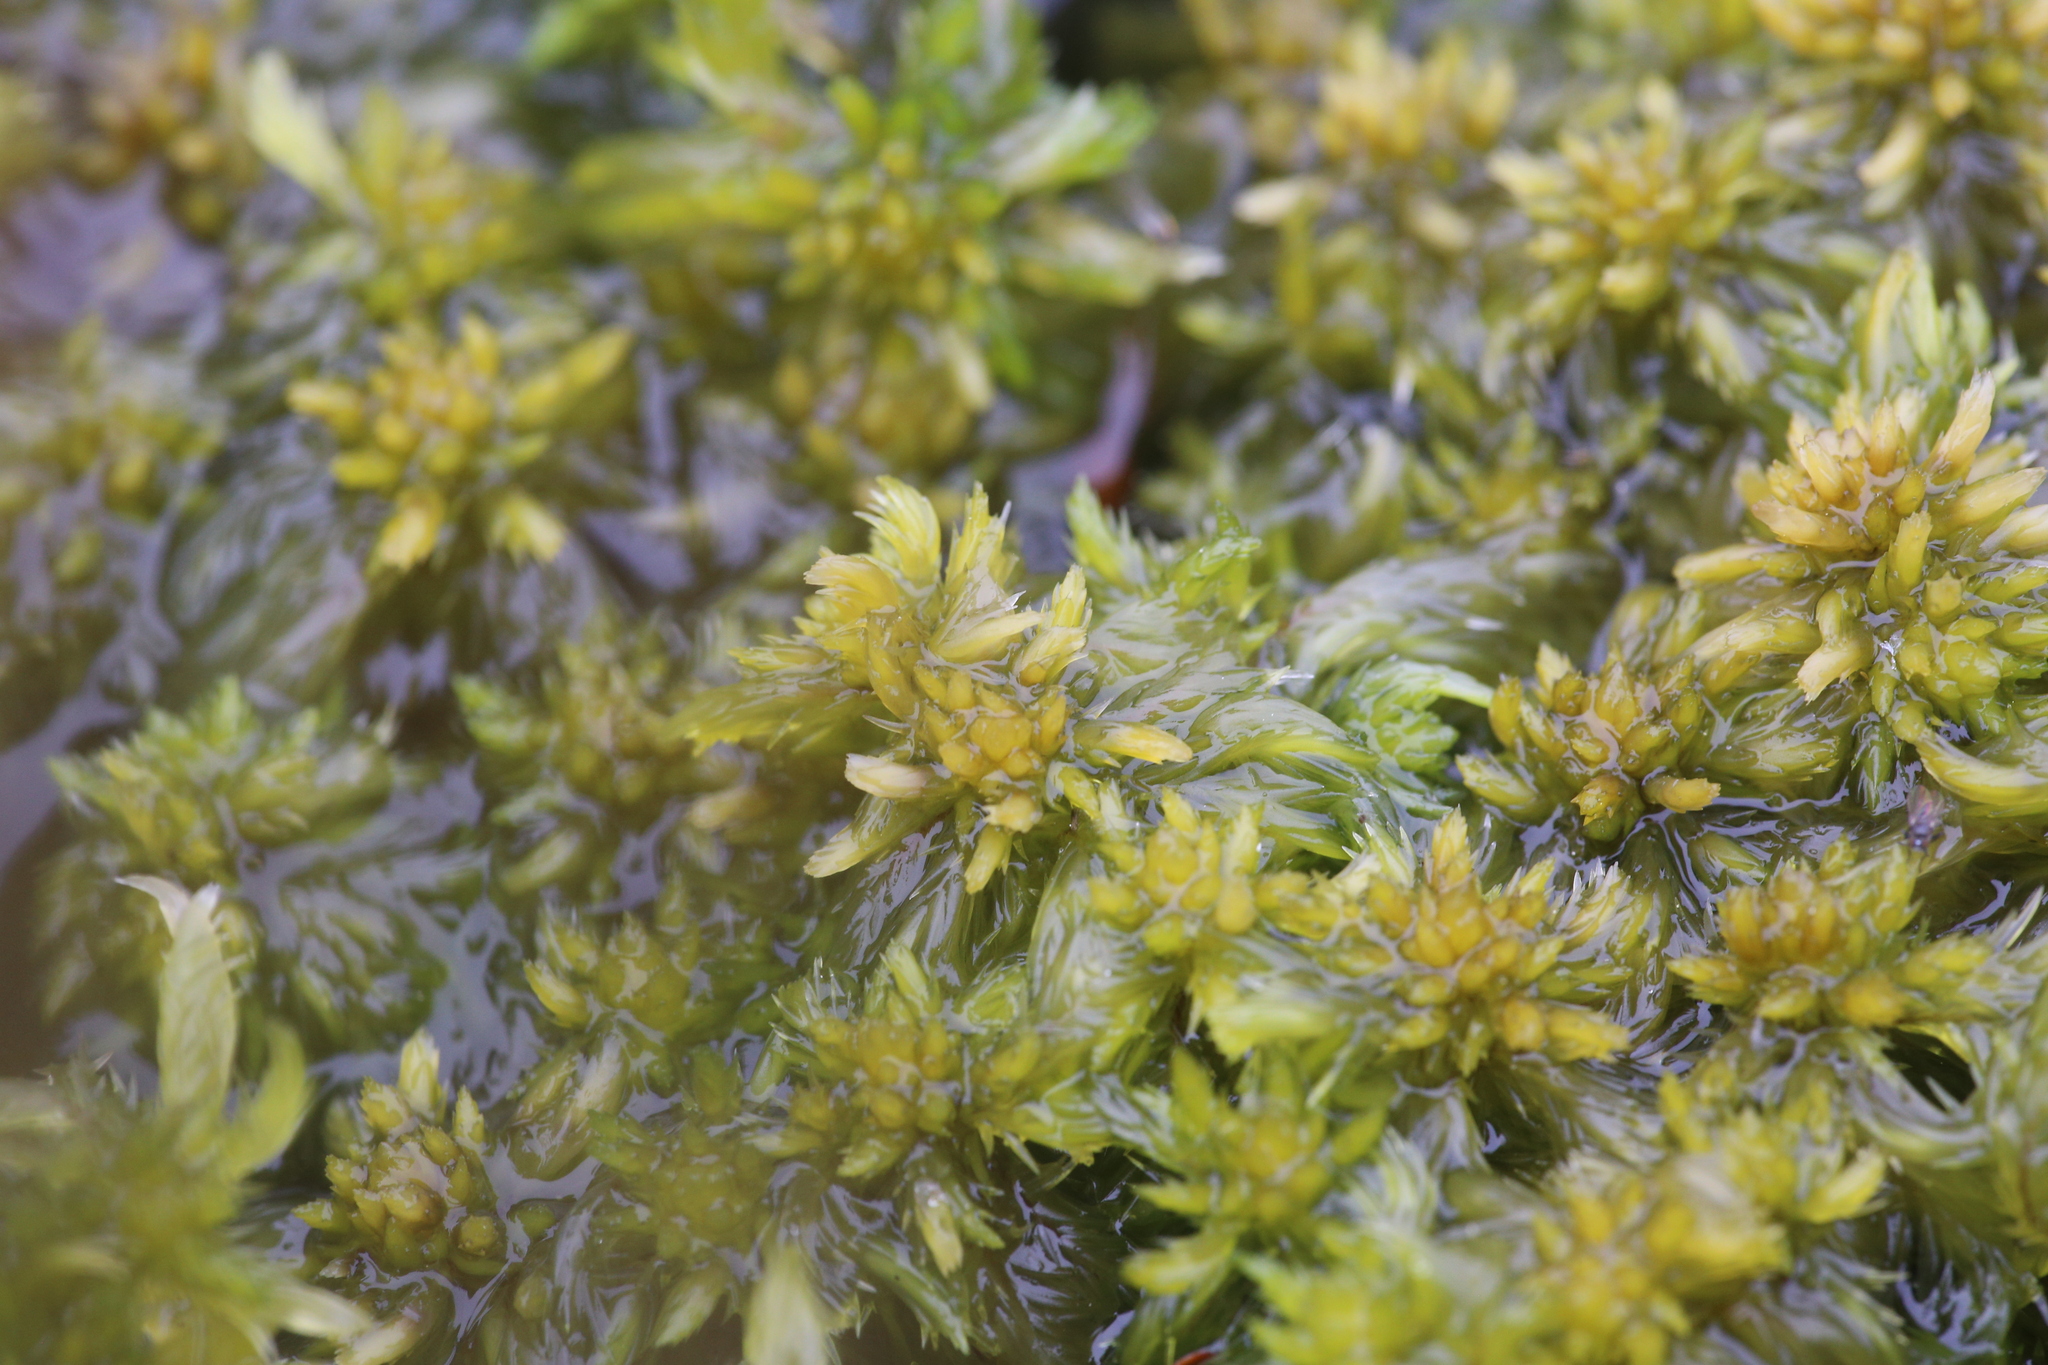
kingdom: Plantae
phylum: Bryophyta
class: Sphagnopsida
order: Sphagnales
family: Sphagnaceae
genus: Sphagnum
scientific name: Sphagnum falcatulum
